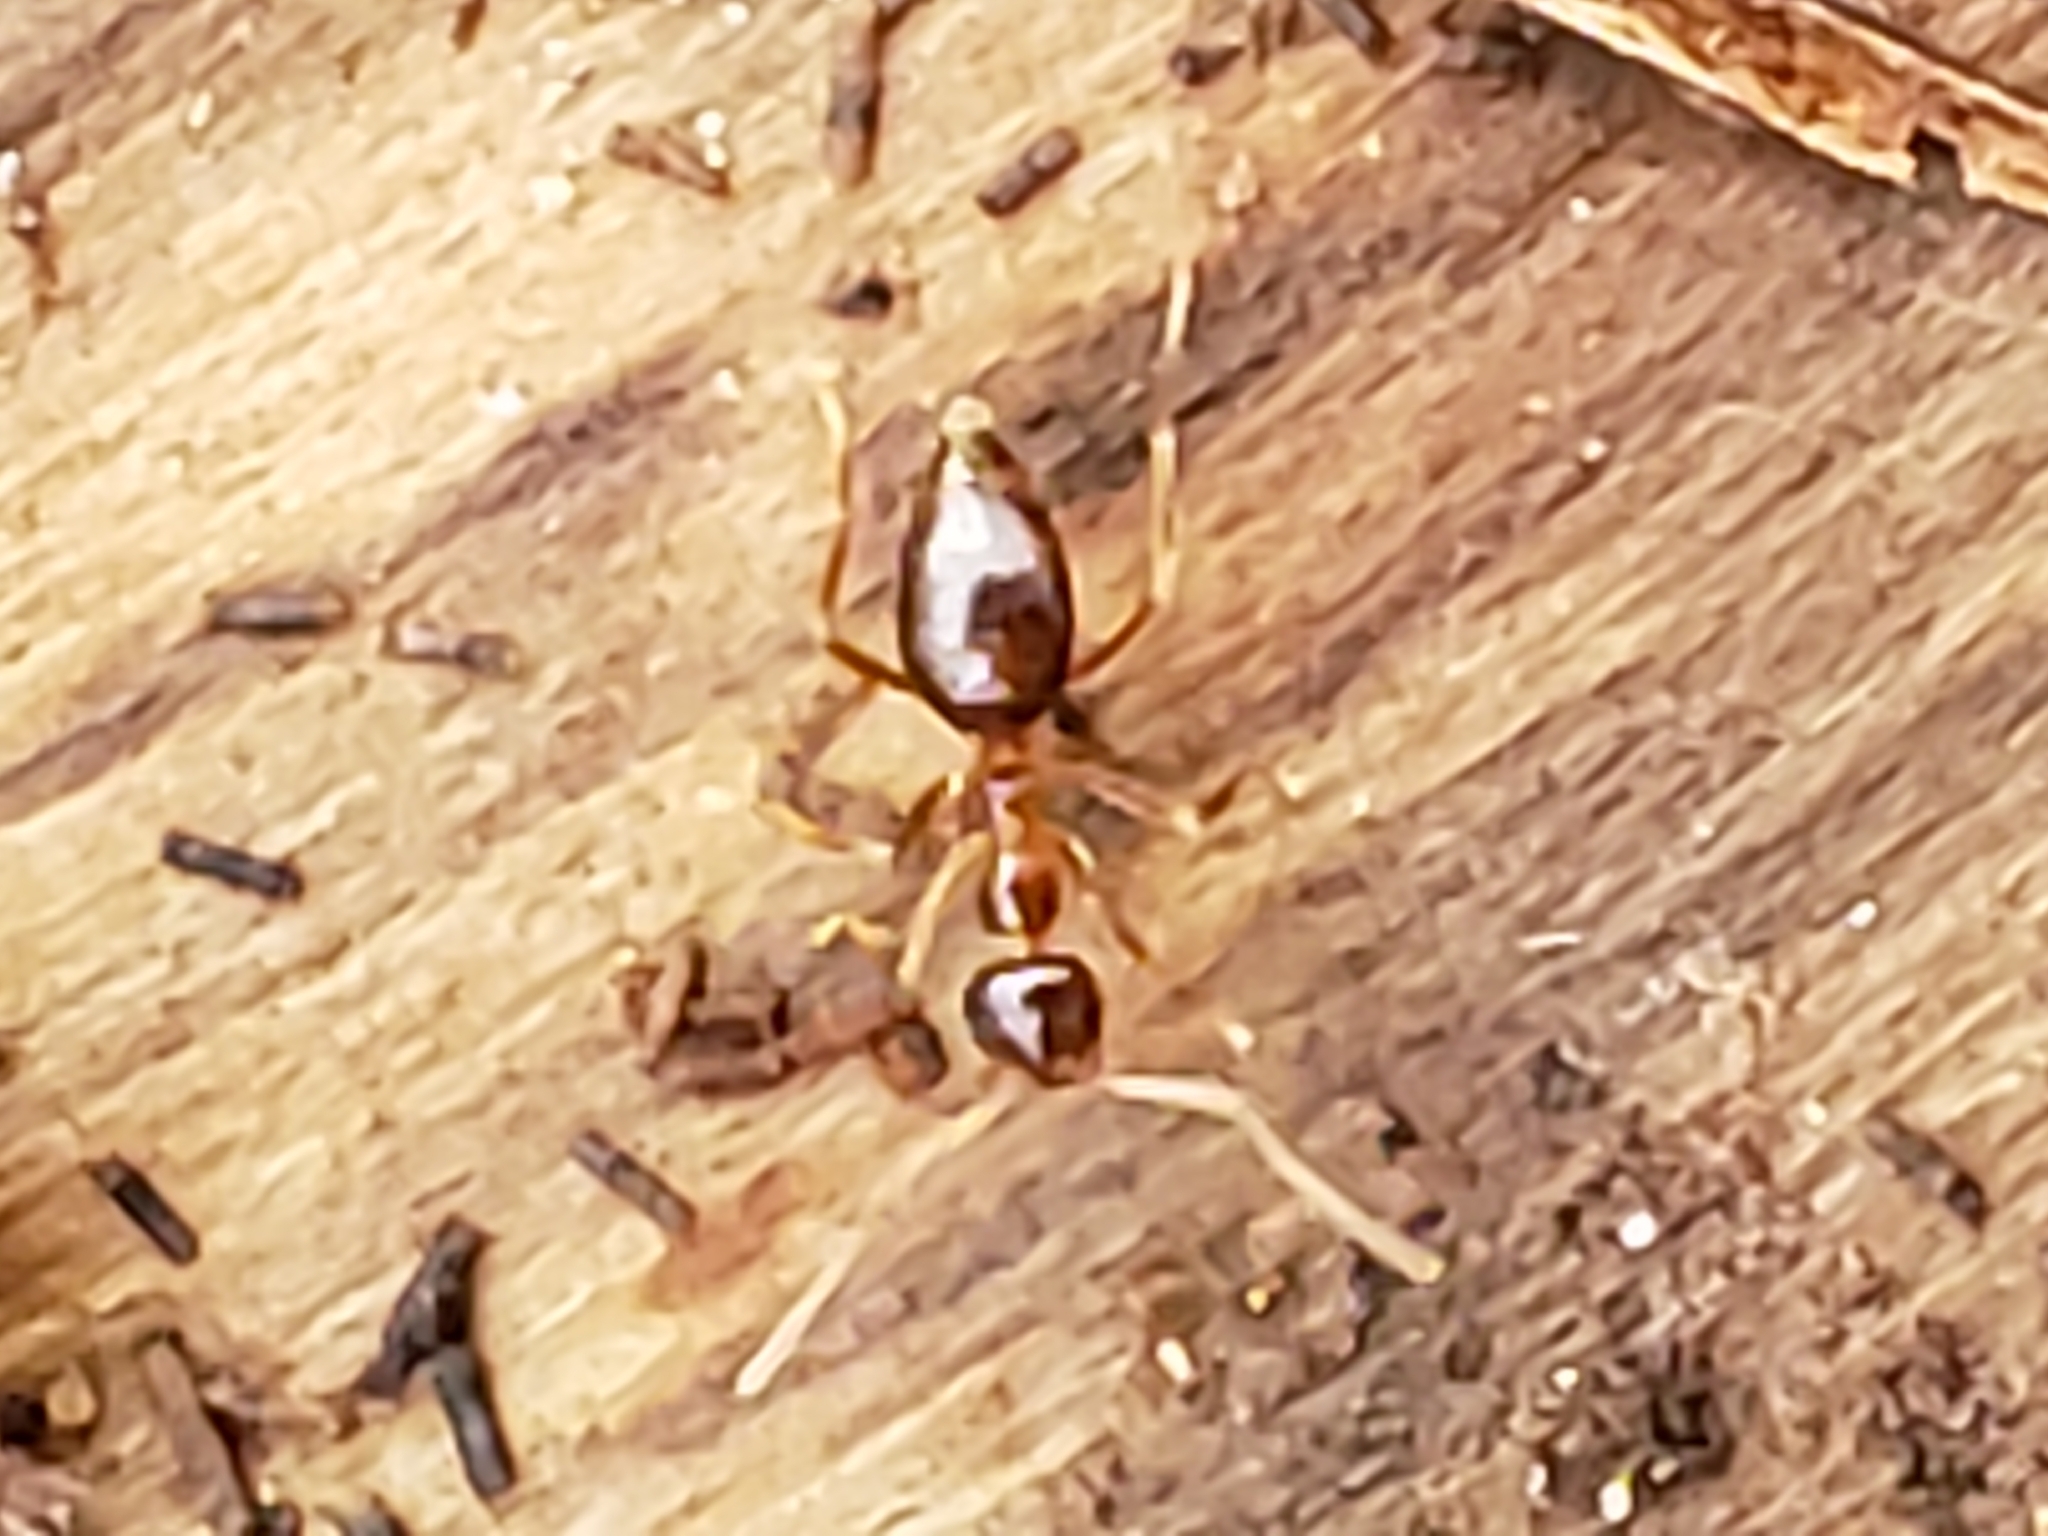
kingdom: Animalia
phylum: Arthropoda
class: Insecta
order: Hymenoptera
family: Formicidae
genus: Prenolepis
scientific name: Prenolepis imparis
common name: Small honey ant
